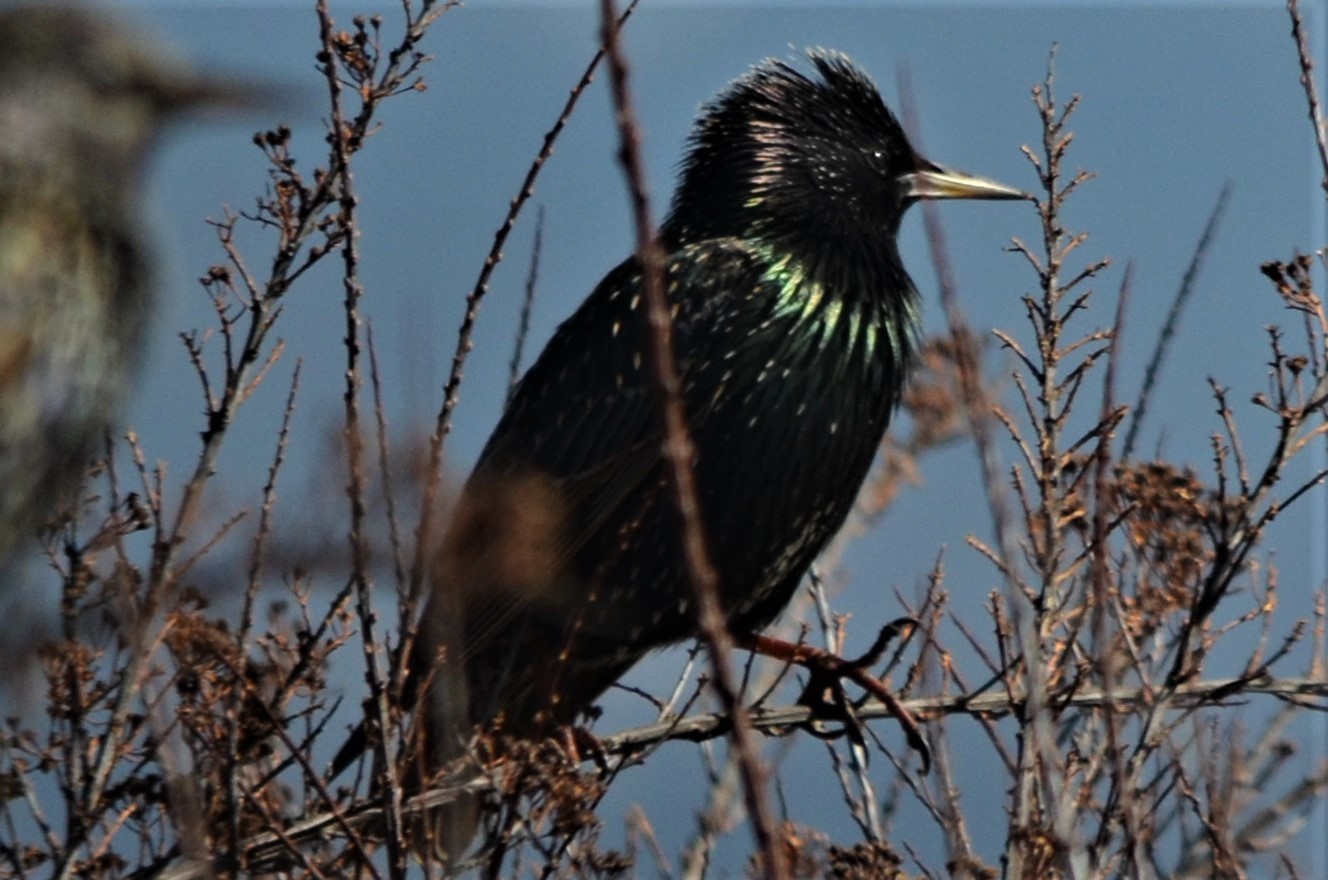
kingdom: Animalia
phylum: Chordata
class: Aves
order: Passeriformes
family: Sturnidae
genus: Sturnus
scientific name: Sturnus vulgaris
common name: Common starling
